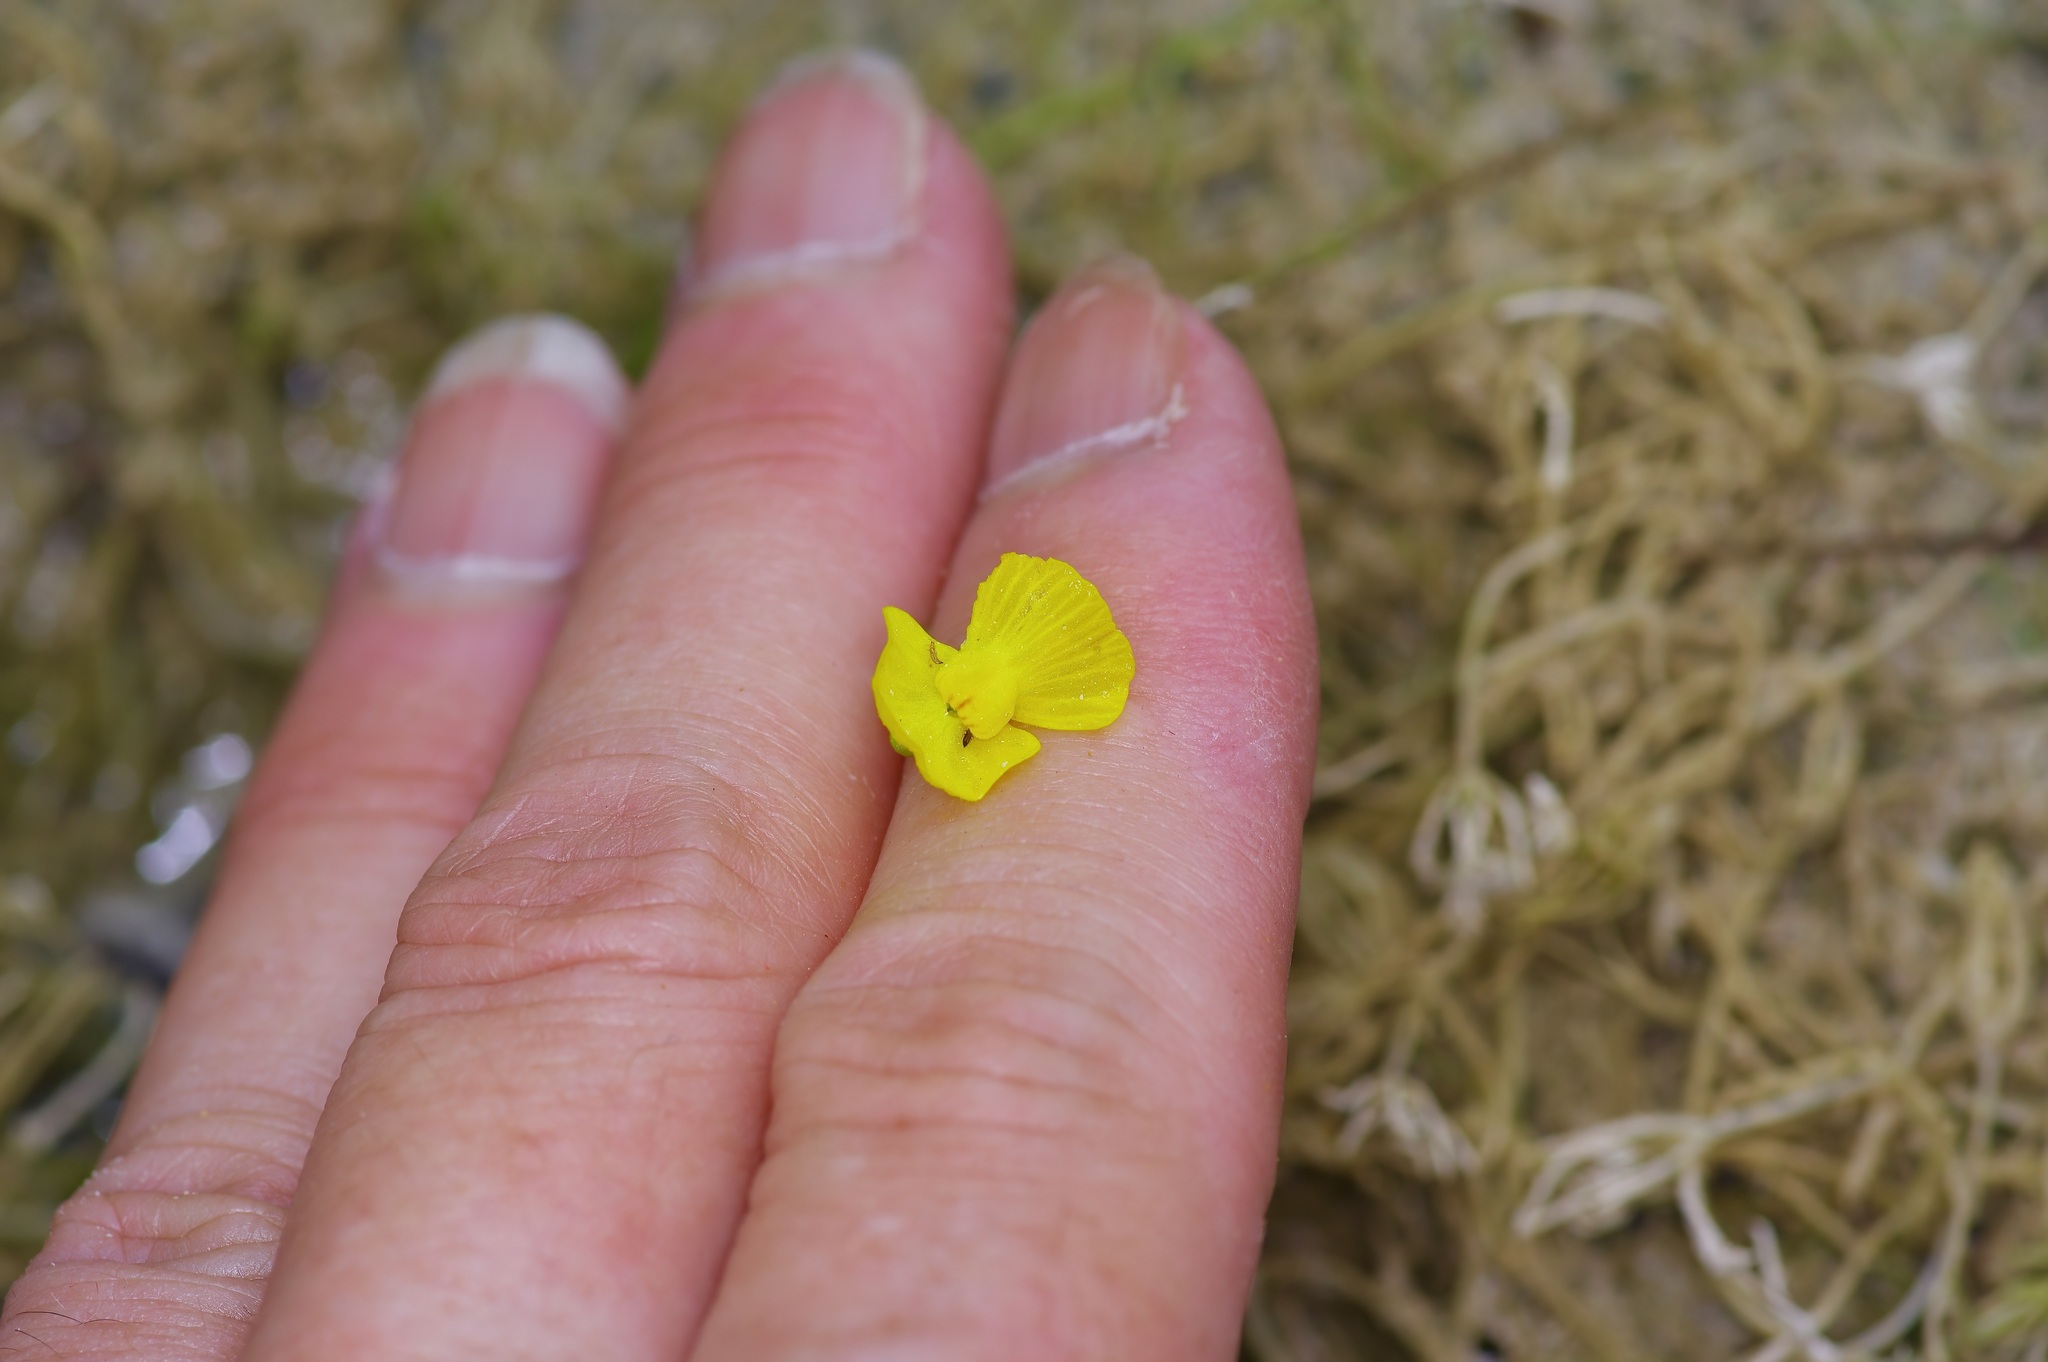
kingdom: Plantae
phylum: Tracheophyta
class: Magnoliopsida
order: Lamiales
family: Lentibulariaceae
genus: Utricularia
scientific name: Utricularia gibba
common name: Humped bladderwort
